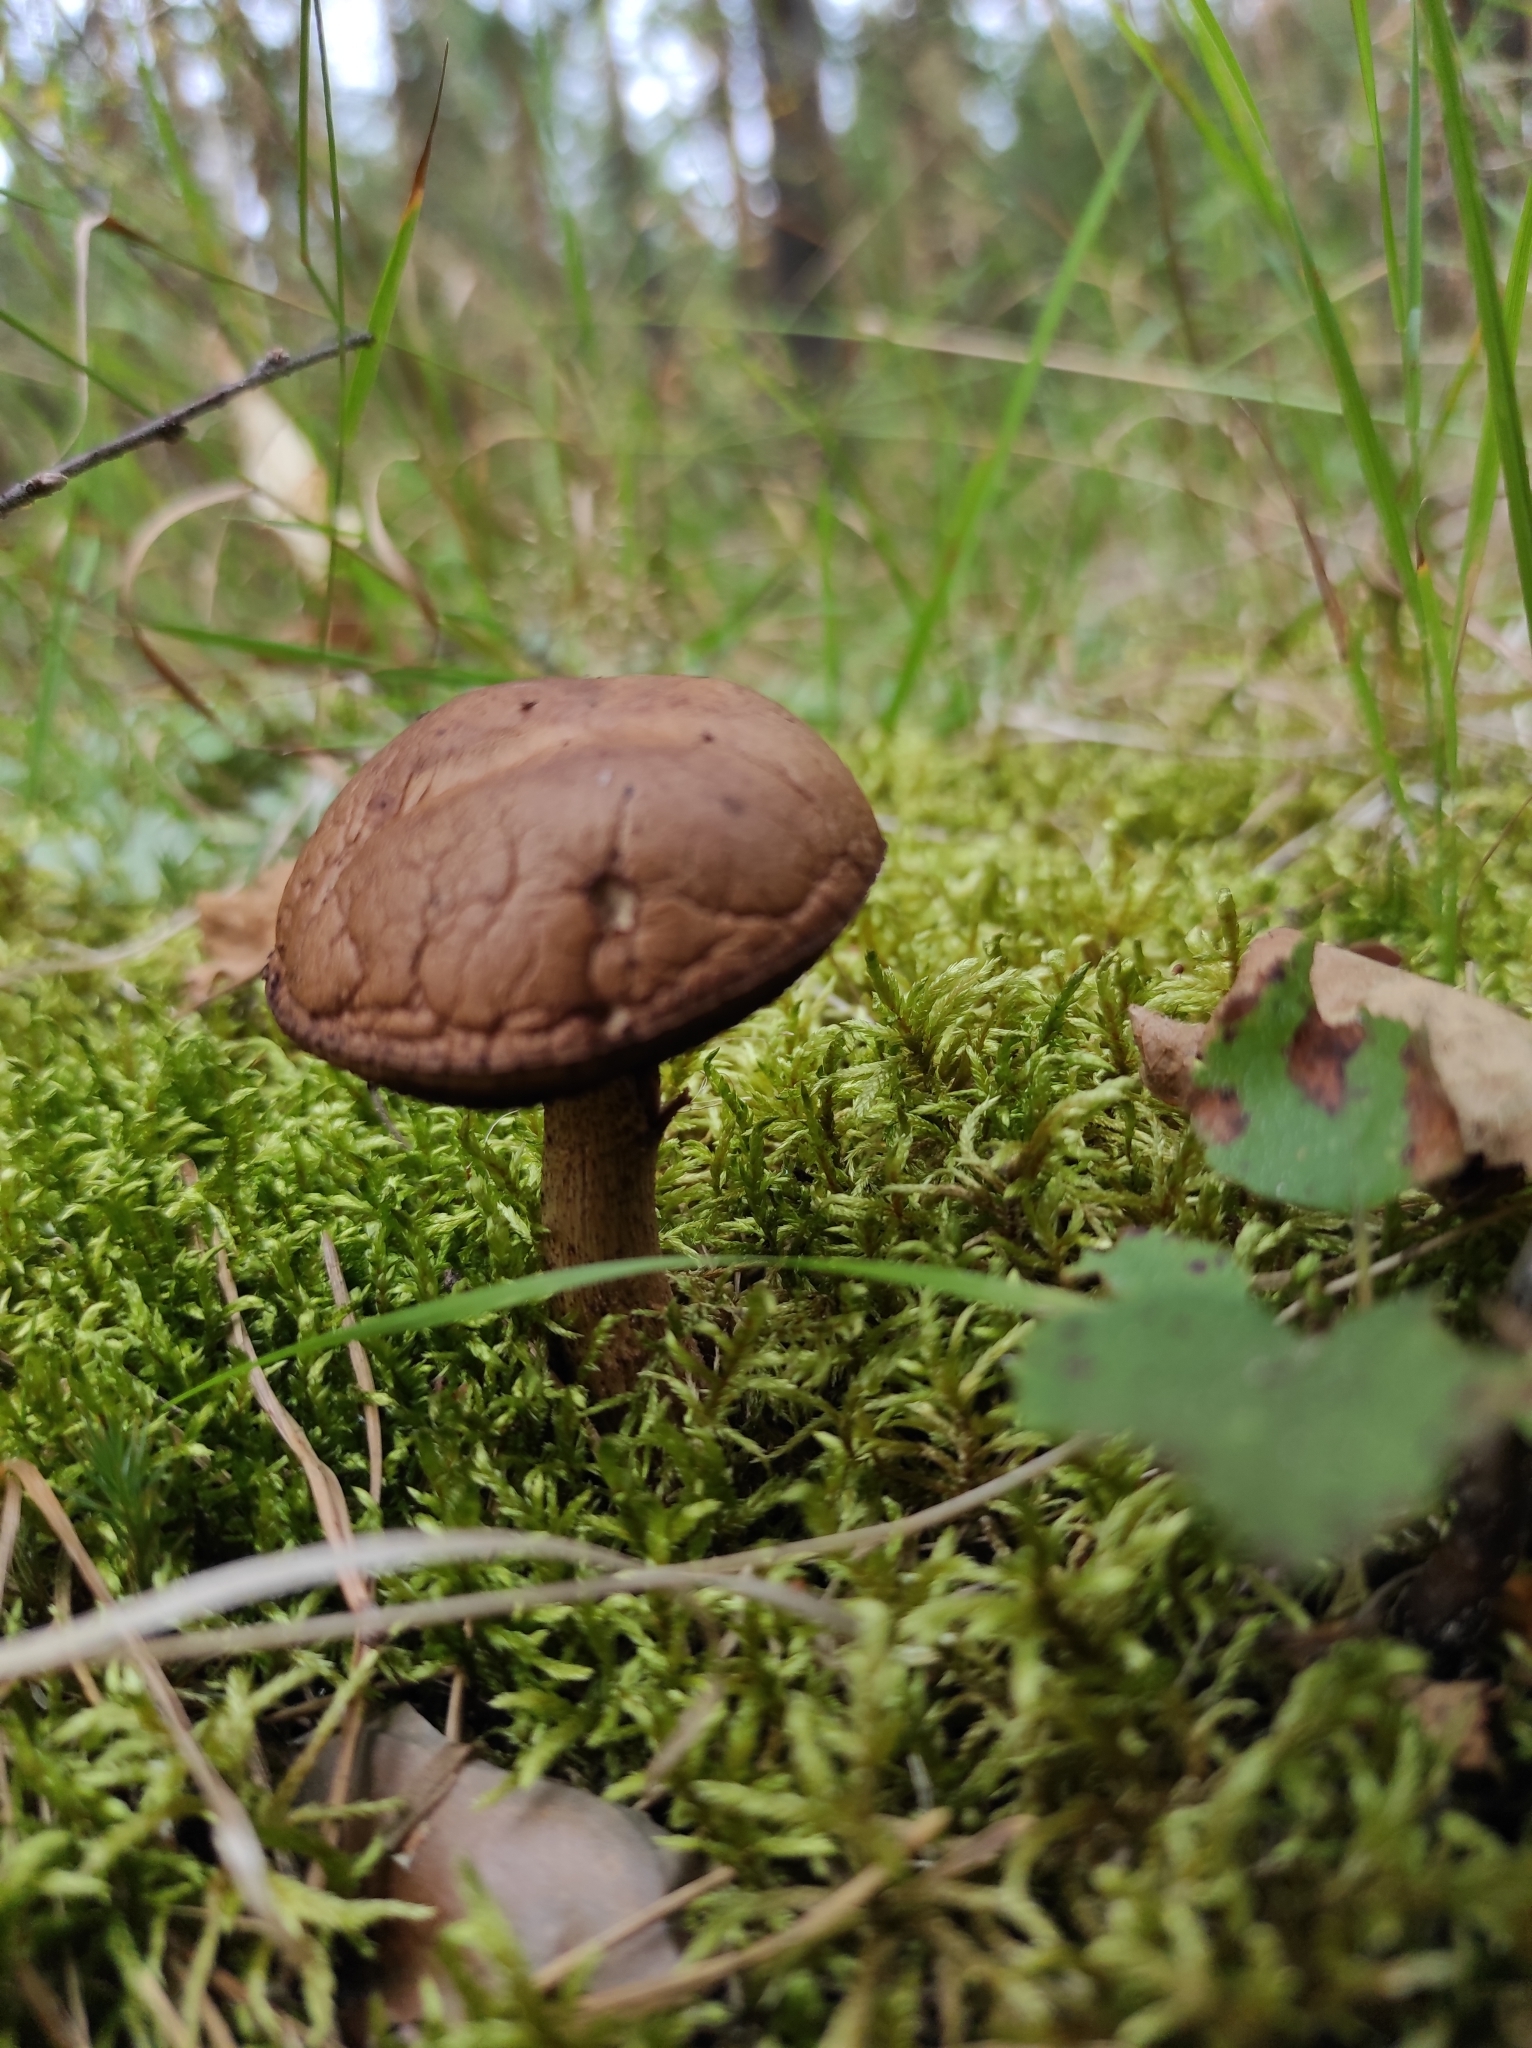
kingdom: Fungi
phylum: Basidiomycota
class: Agaricomycetes
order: Boletales
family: Boletaceae
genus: Leccinum
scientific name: Leccinum scabrum
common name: Blushing bolete
